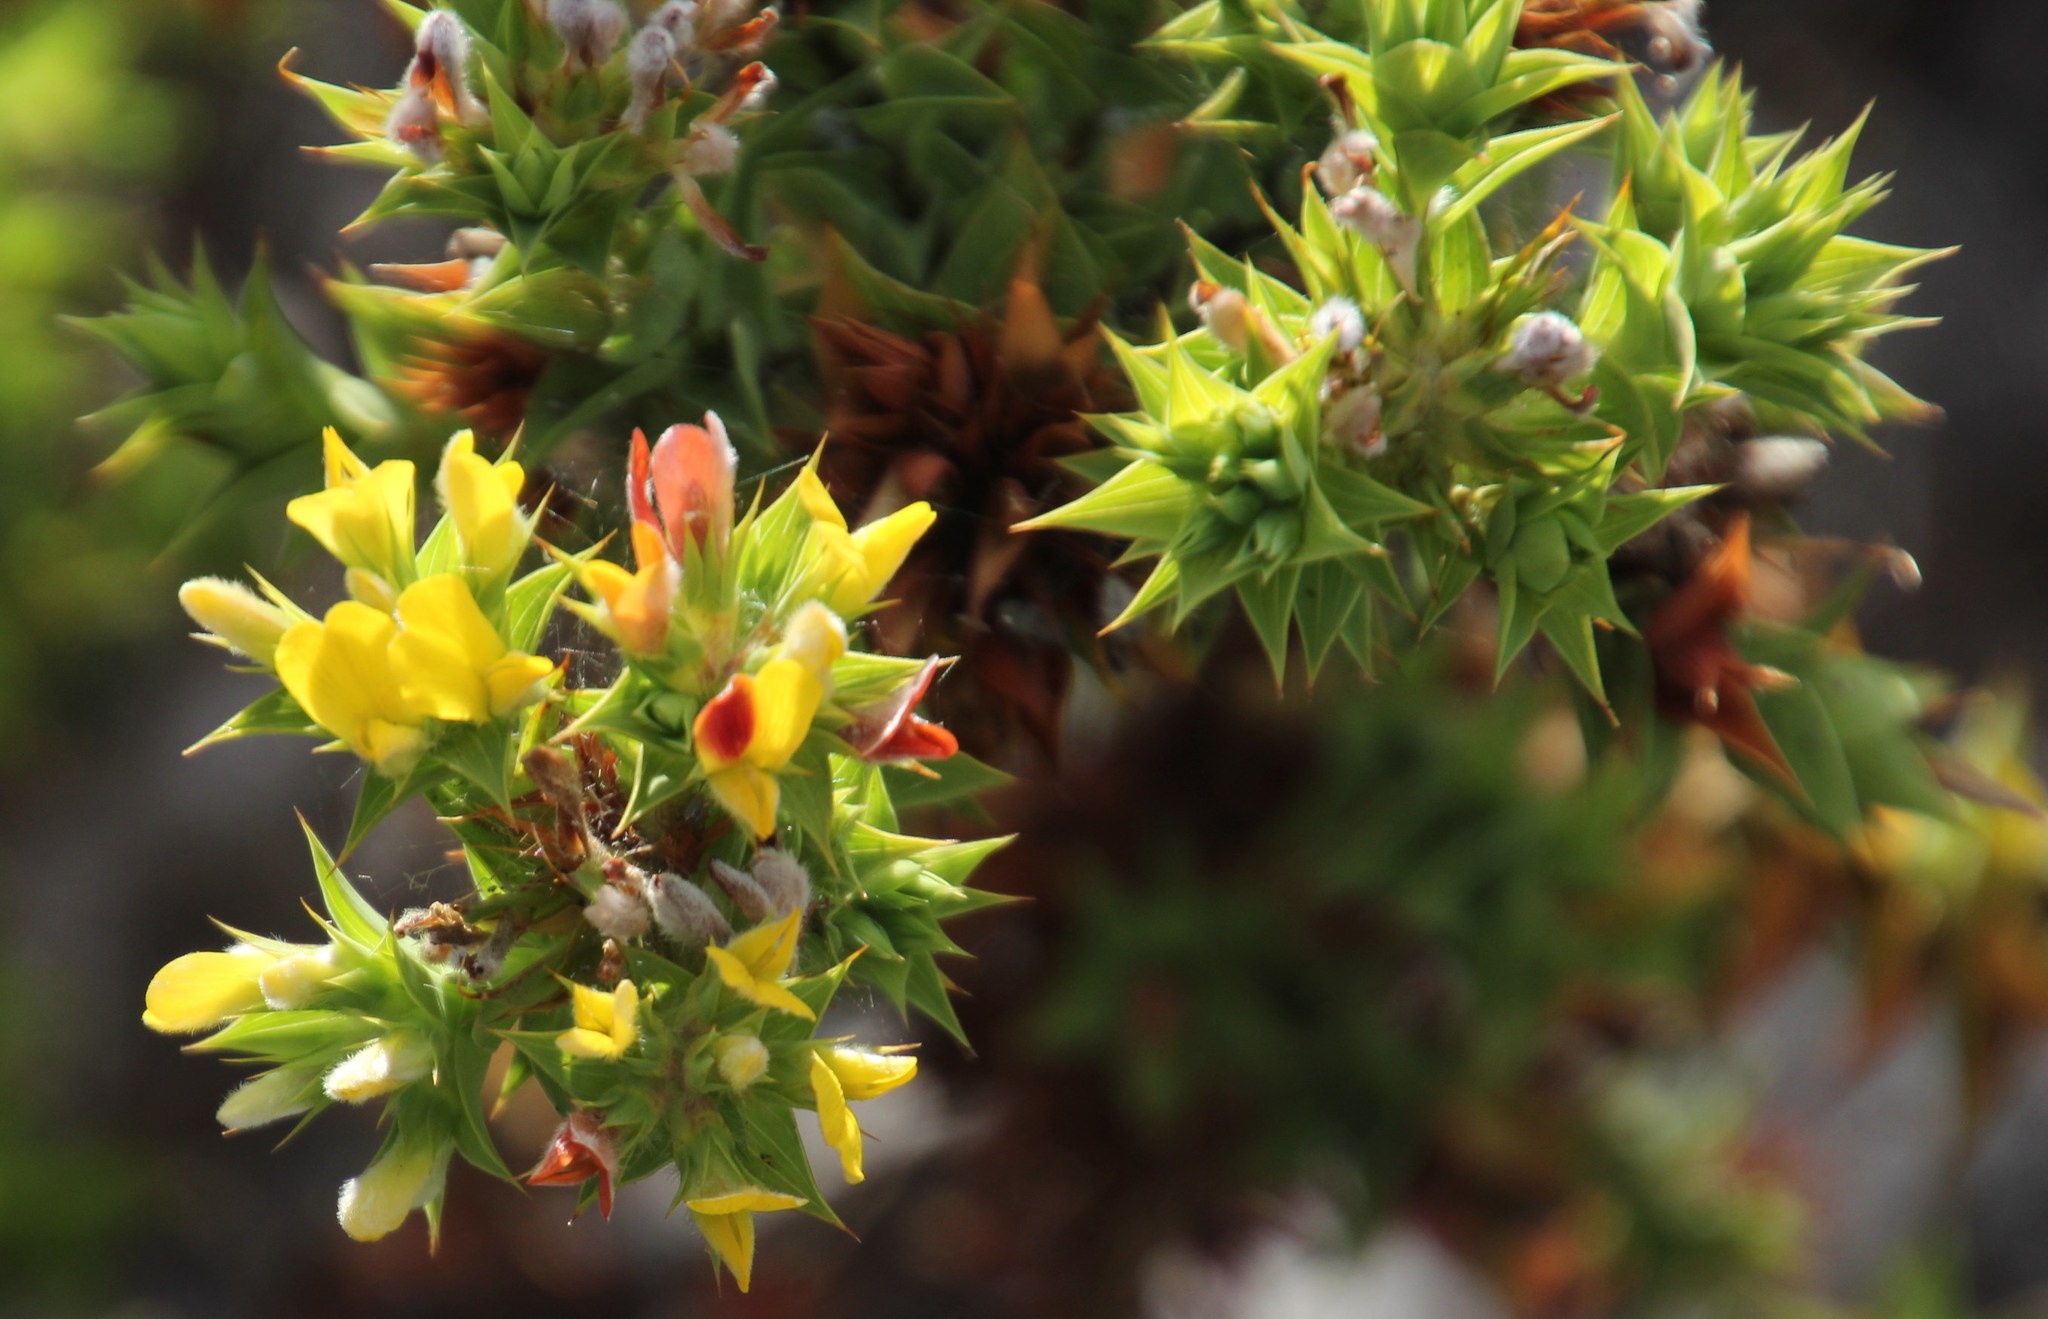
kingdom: Plantae
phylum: Tracheophyta
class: Magnoliopsida
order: Fabales
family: Fabaceae
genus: Aspalathus
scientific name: Aspalathus cordata
